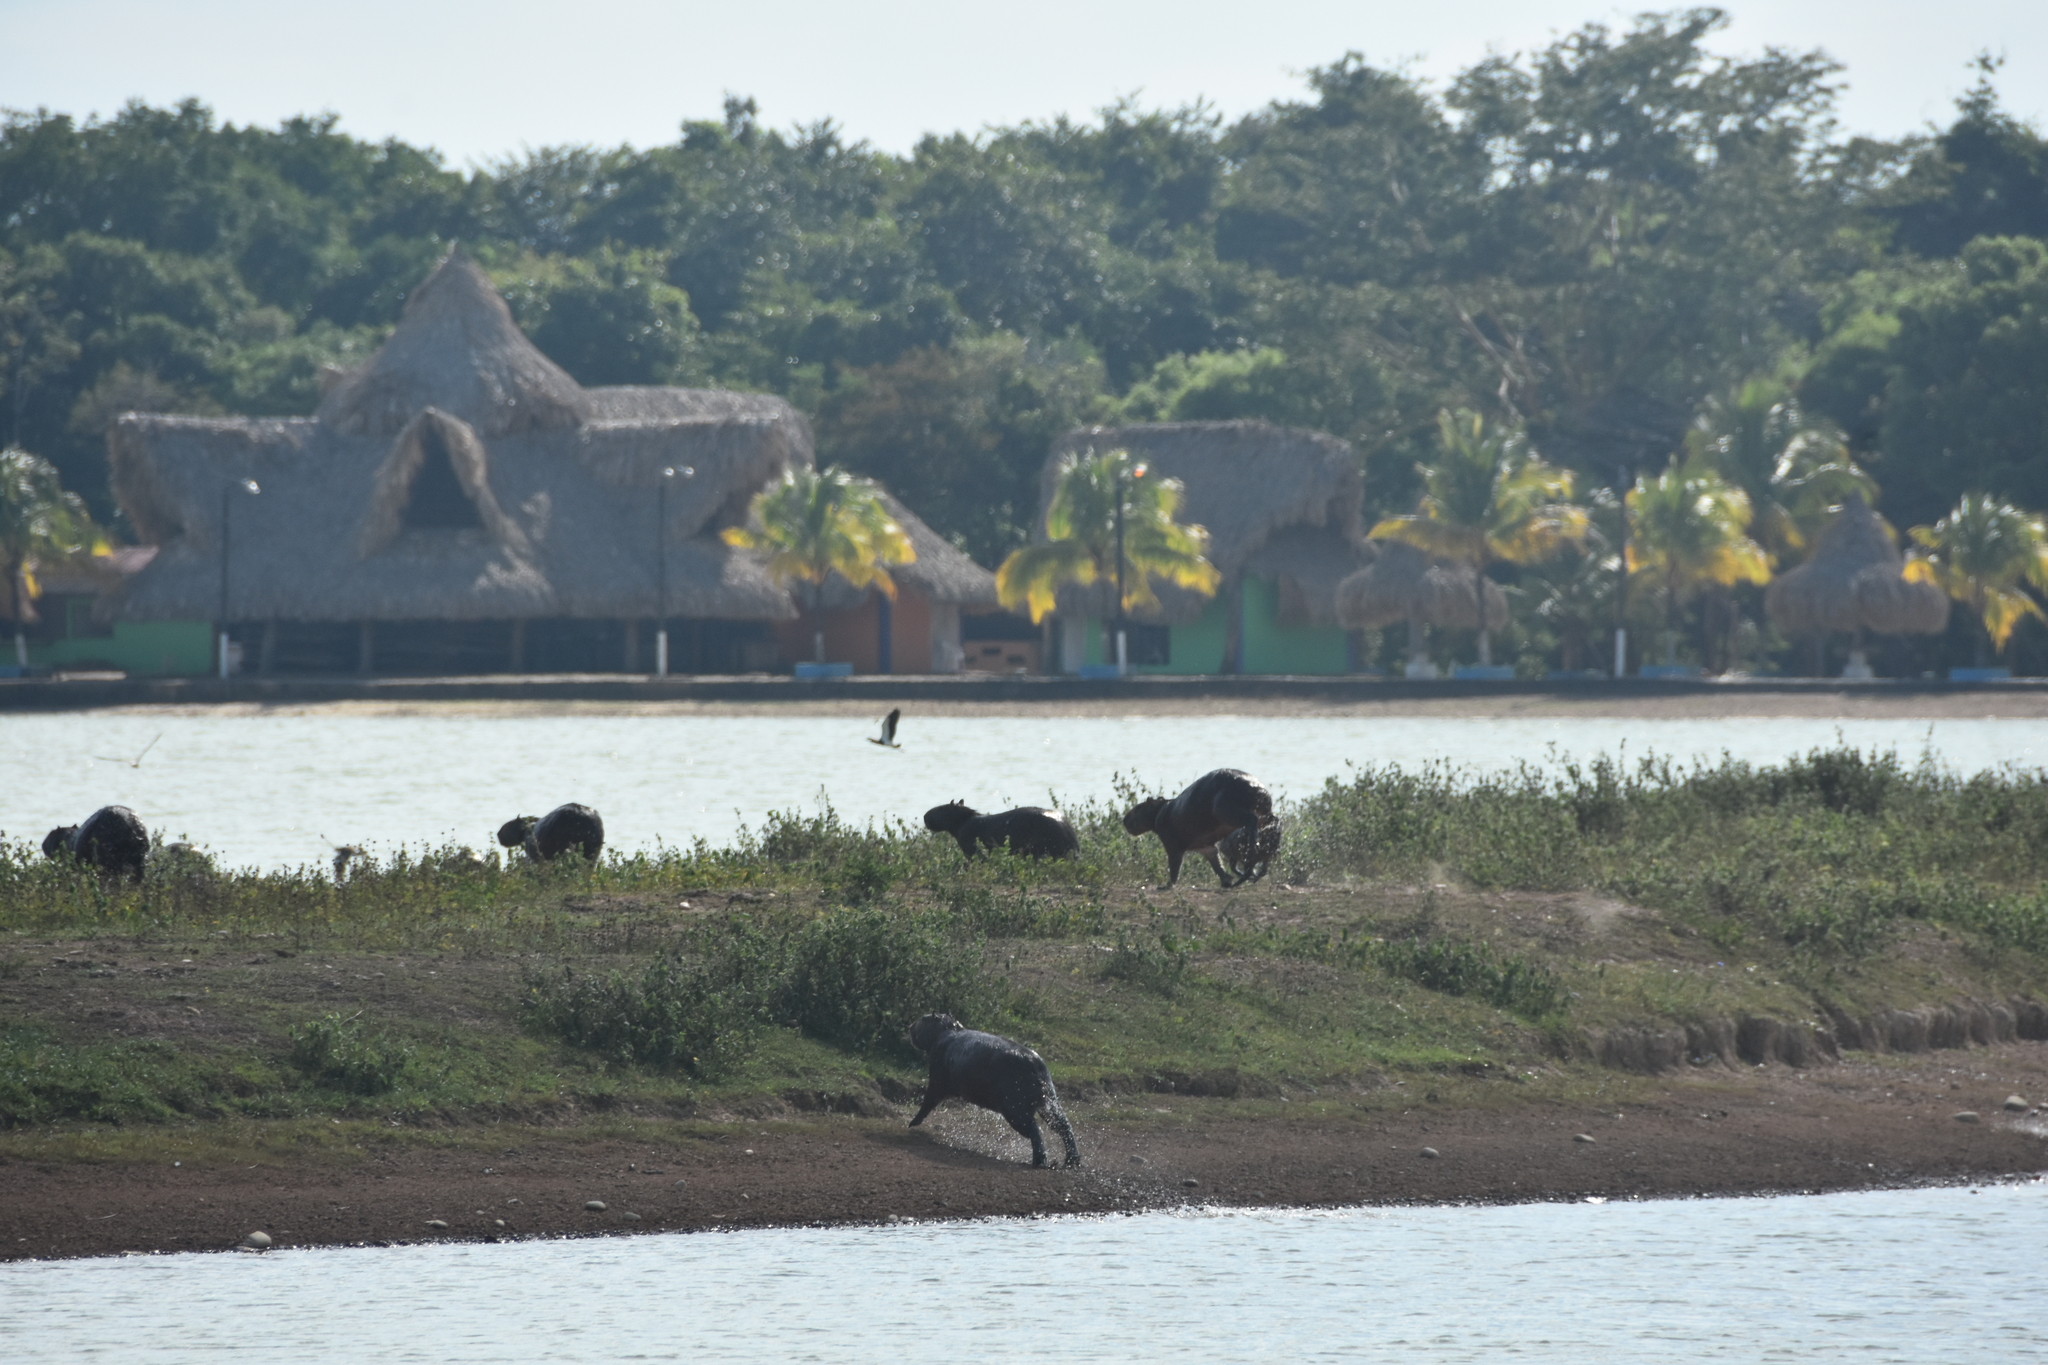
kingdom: Animalia
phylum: Chordata
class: Mammalia
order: Rodentia
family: Caviidae
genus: Hydrochoerus
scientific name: Hydrochoerus hydrochaeris
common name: Capybara
